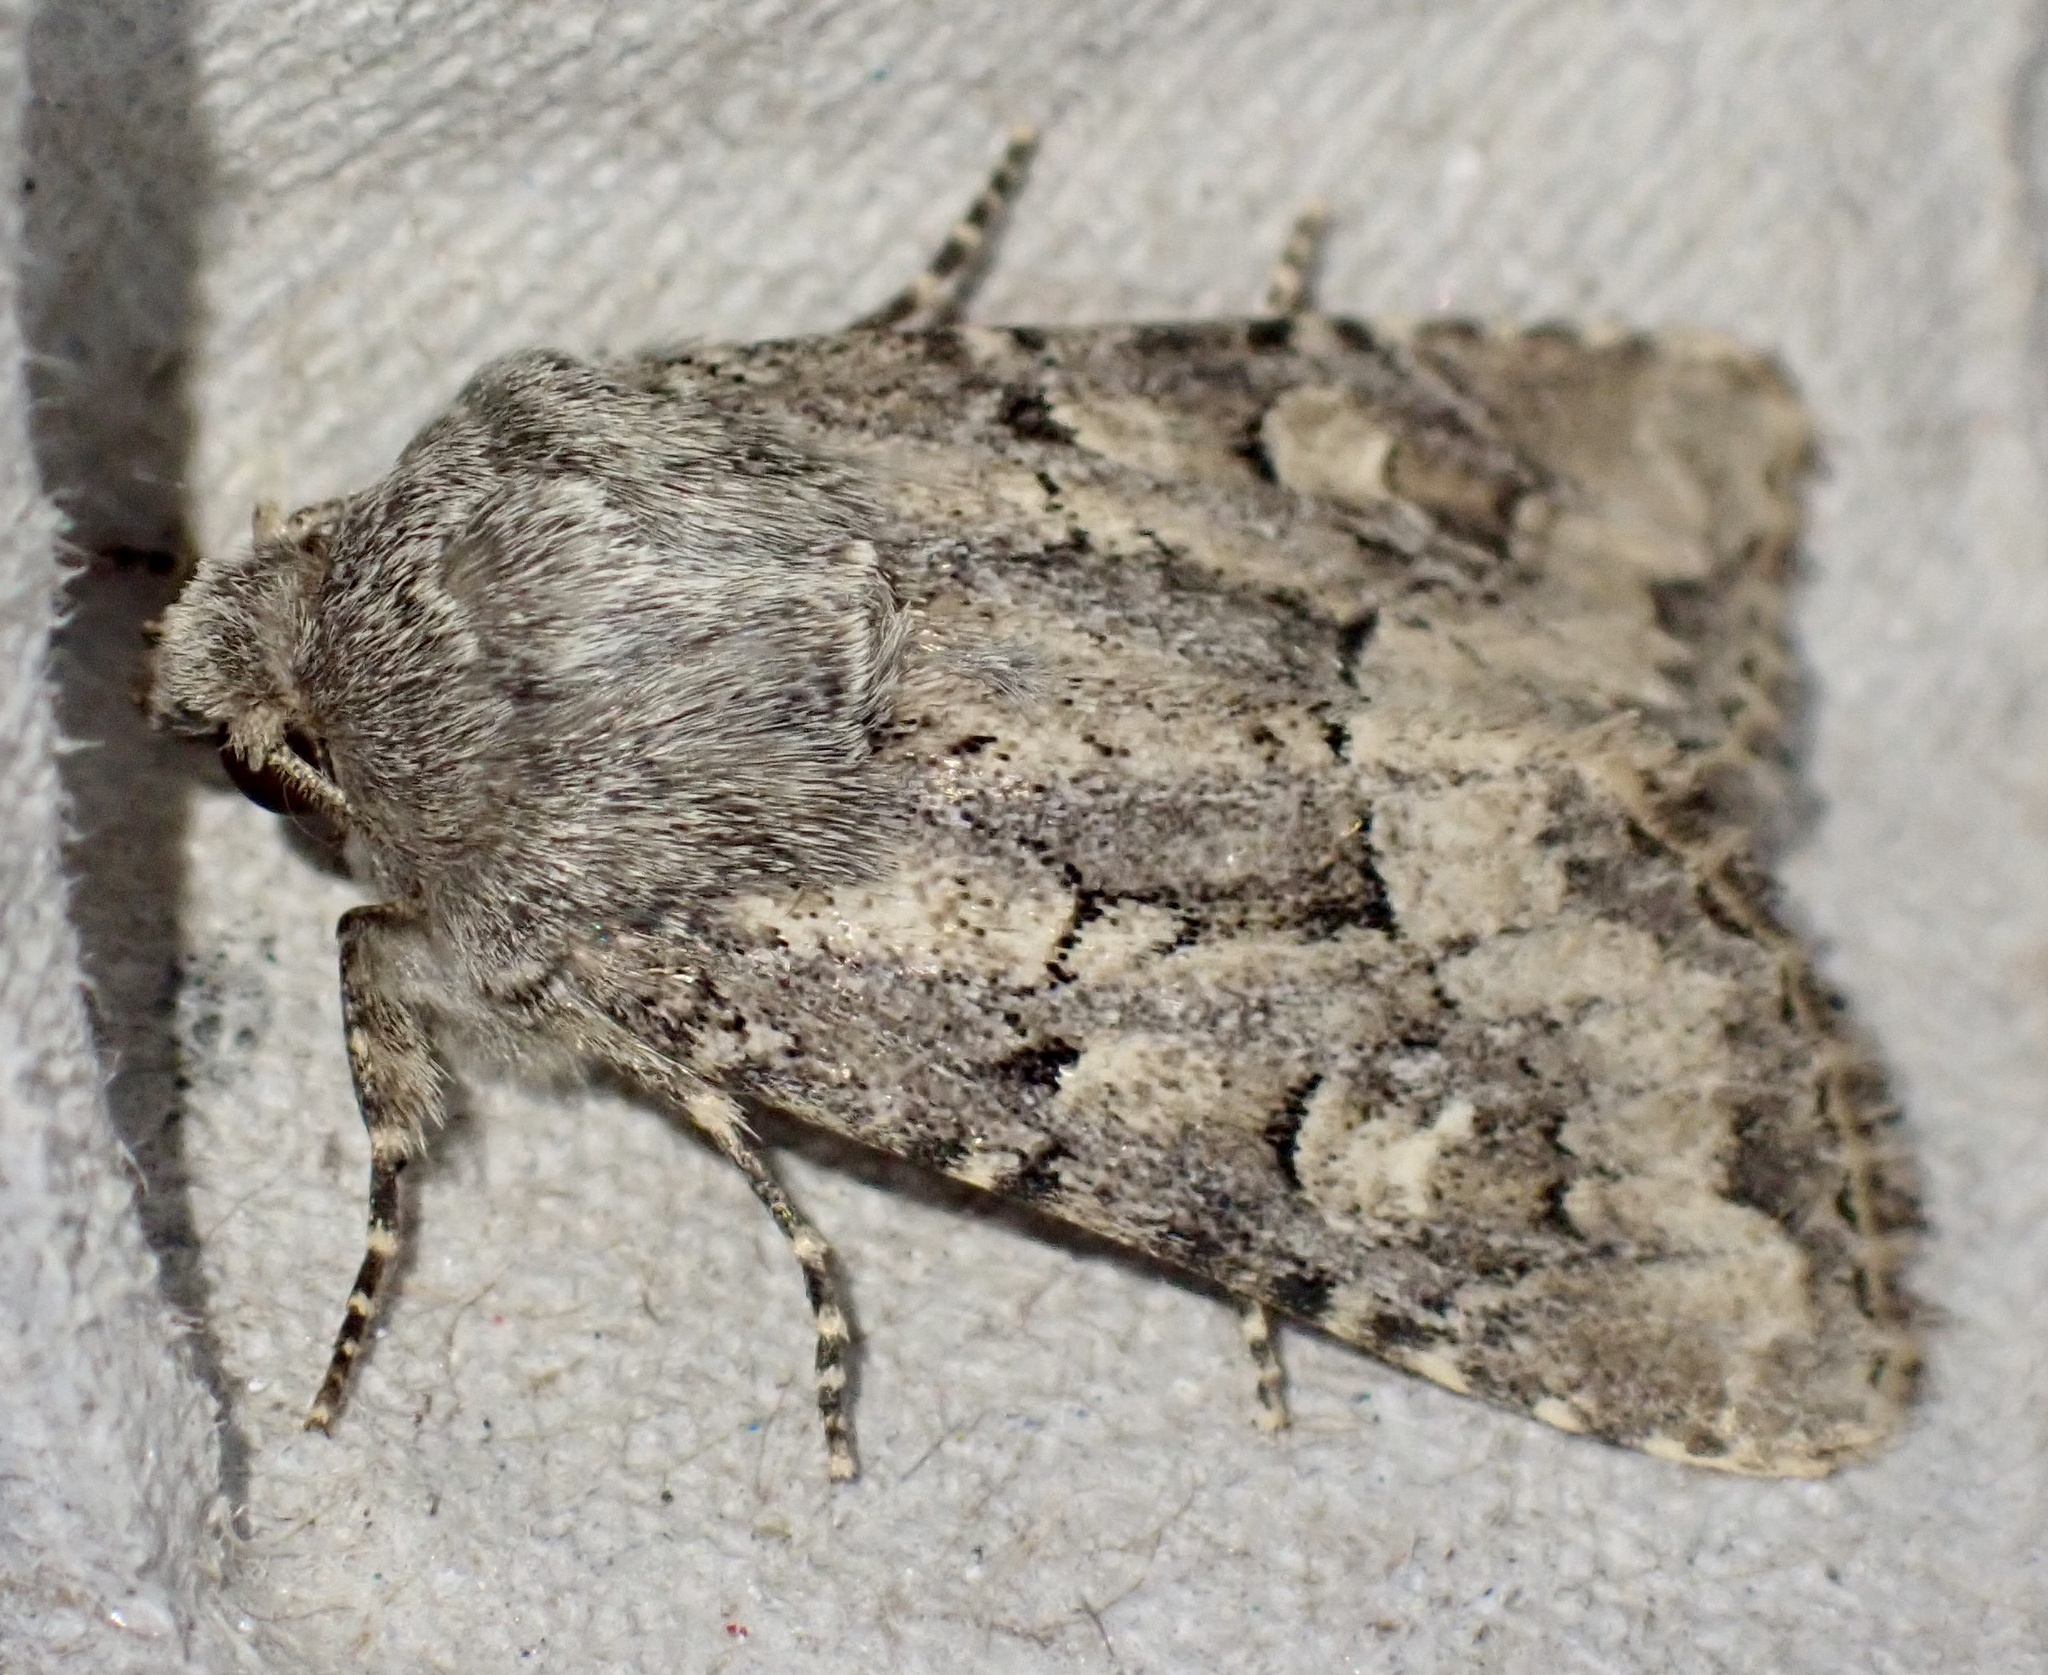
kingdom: Animalia
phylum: Arthropoda
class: Insecta
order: Lepidoptera
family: Noctuidae
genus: Luperina
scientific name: Luperina testacea
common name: Flounced rustic
